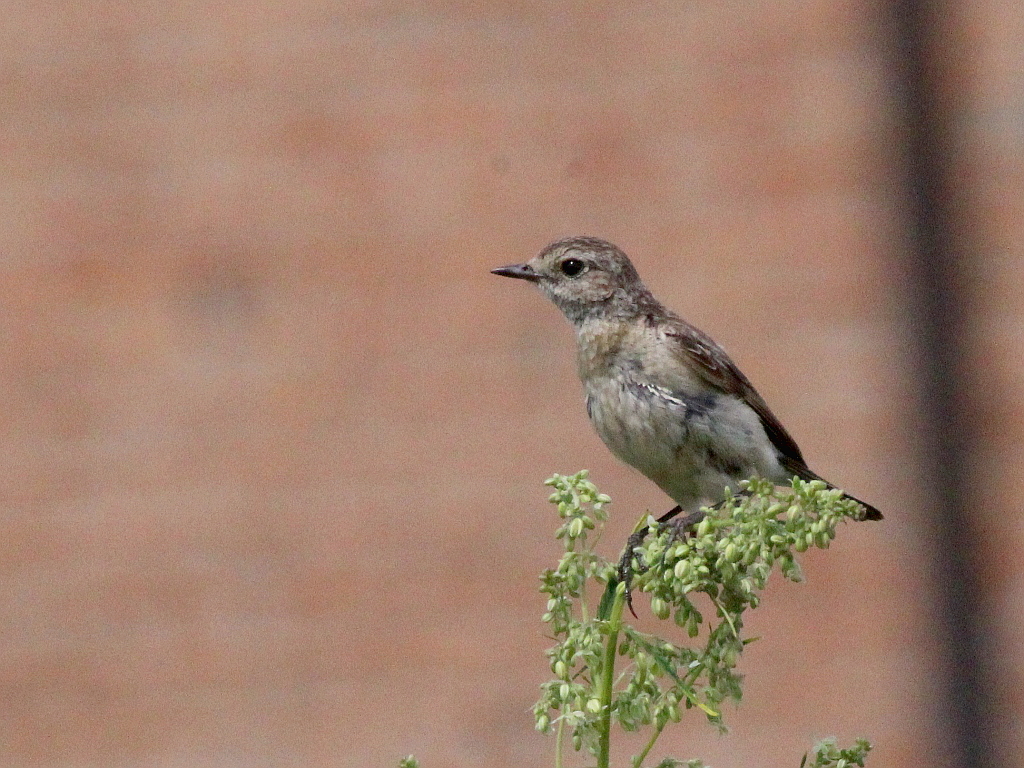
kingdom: Animalia
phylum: Chordata
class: Aves
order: Passeriformes
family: Muscicapidae
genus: Saxicola
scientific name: Saxicola maurus
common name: Siberian stonechat
